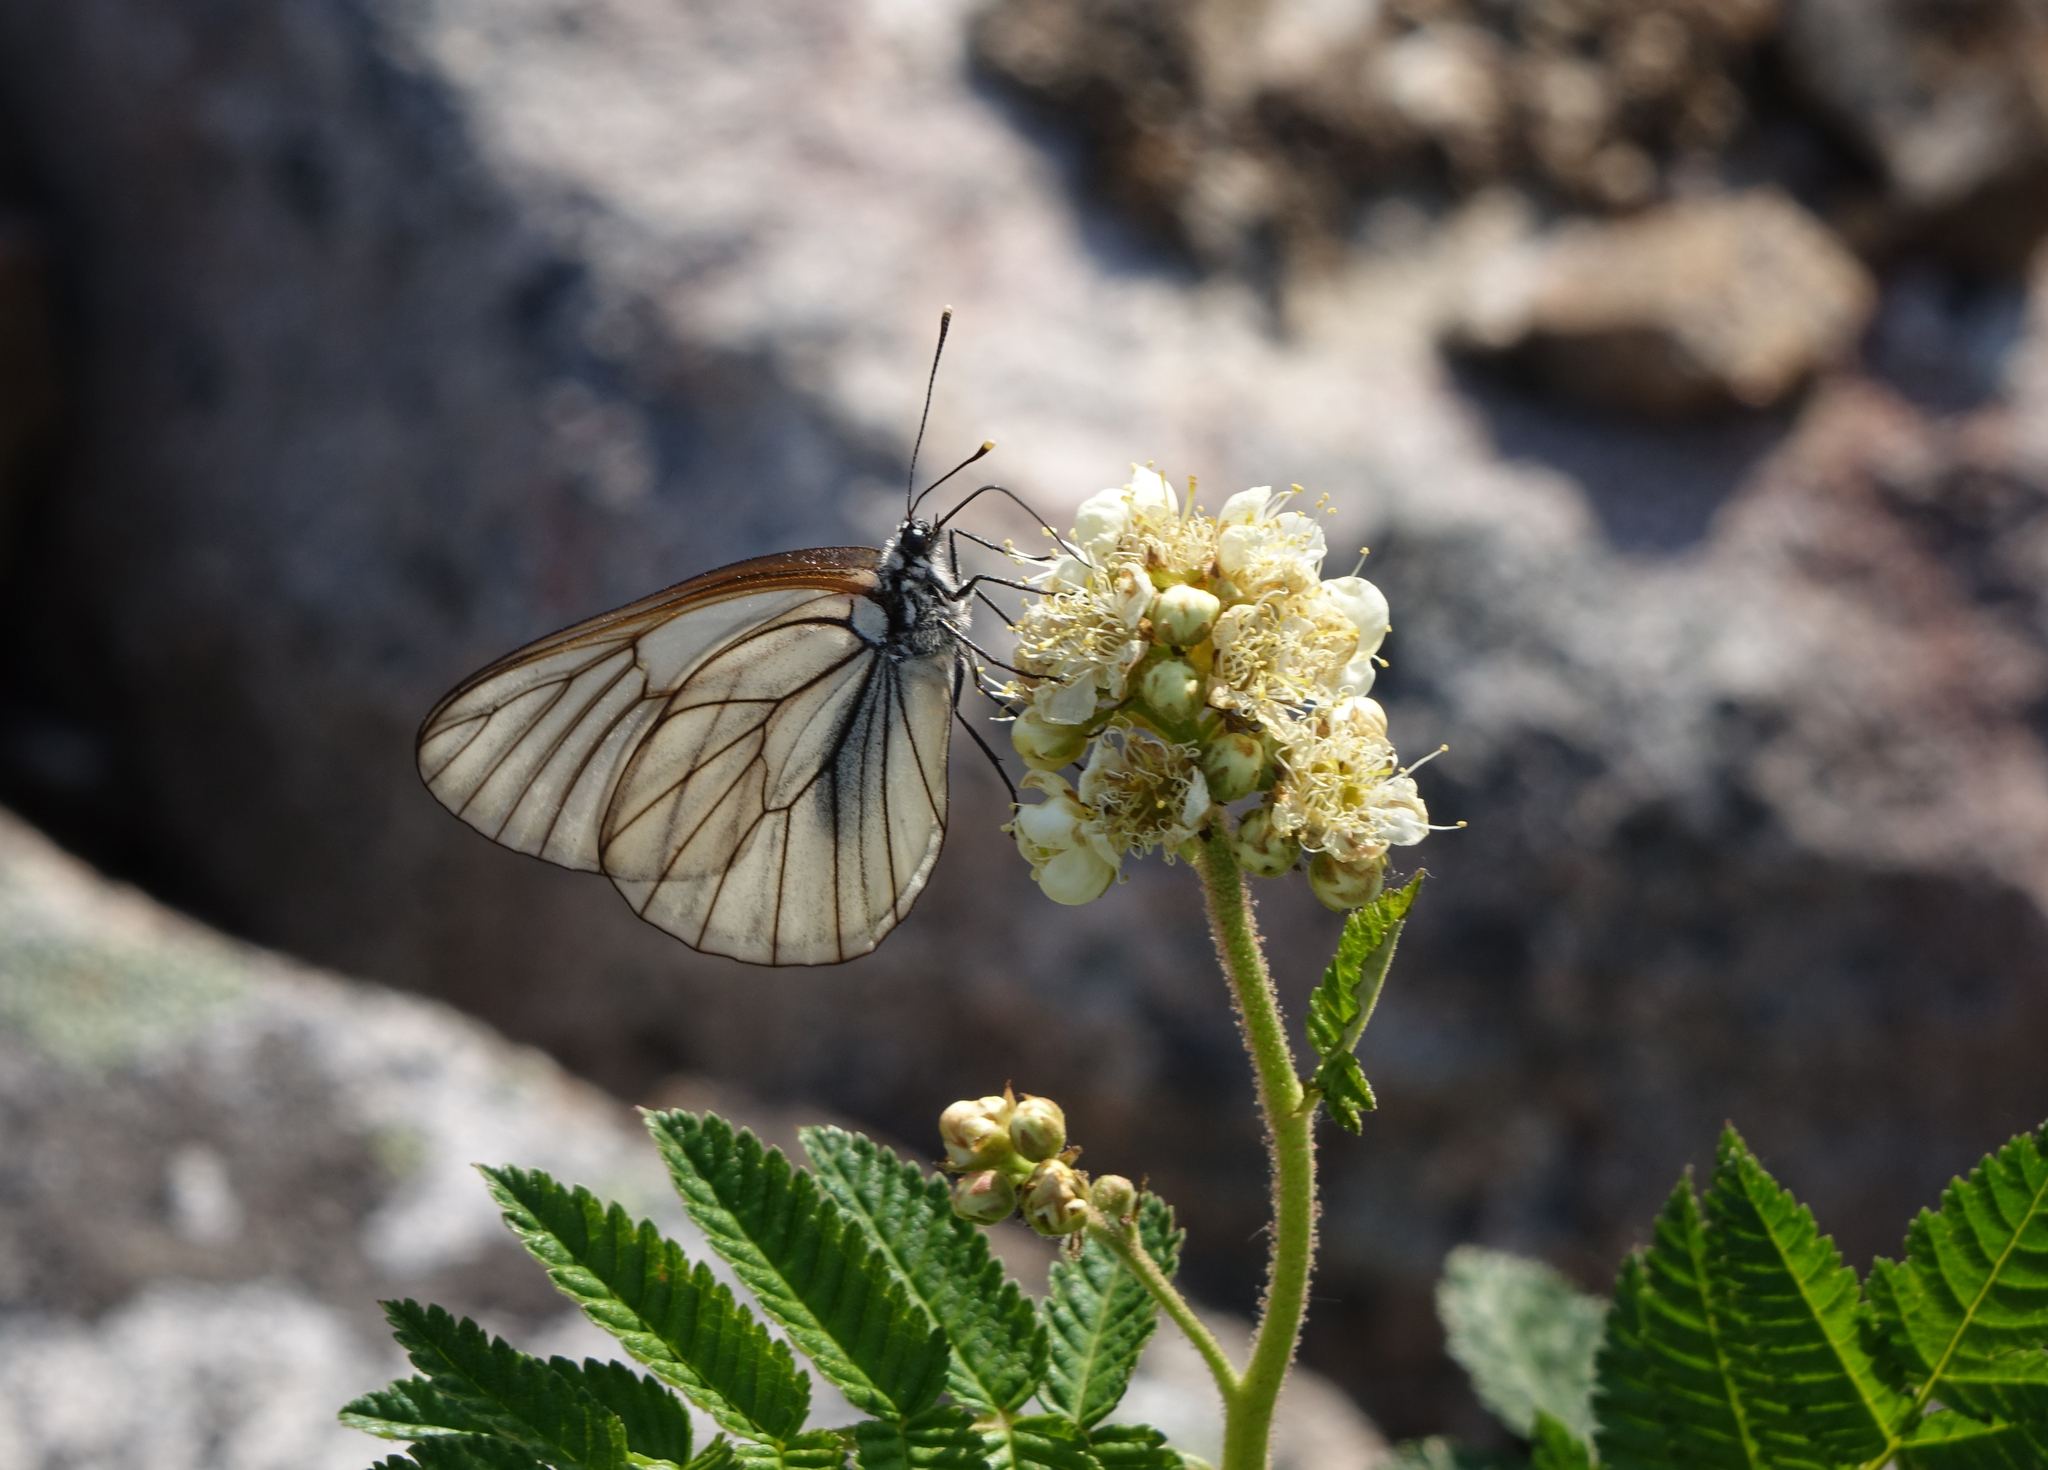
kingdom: Animalia
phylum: Arthropoda
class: Insecta
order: Lepidoptera
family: Pieridae
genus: Aporia
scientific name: Aporia crataegi
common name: Black-veined white
